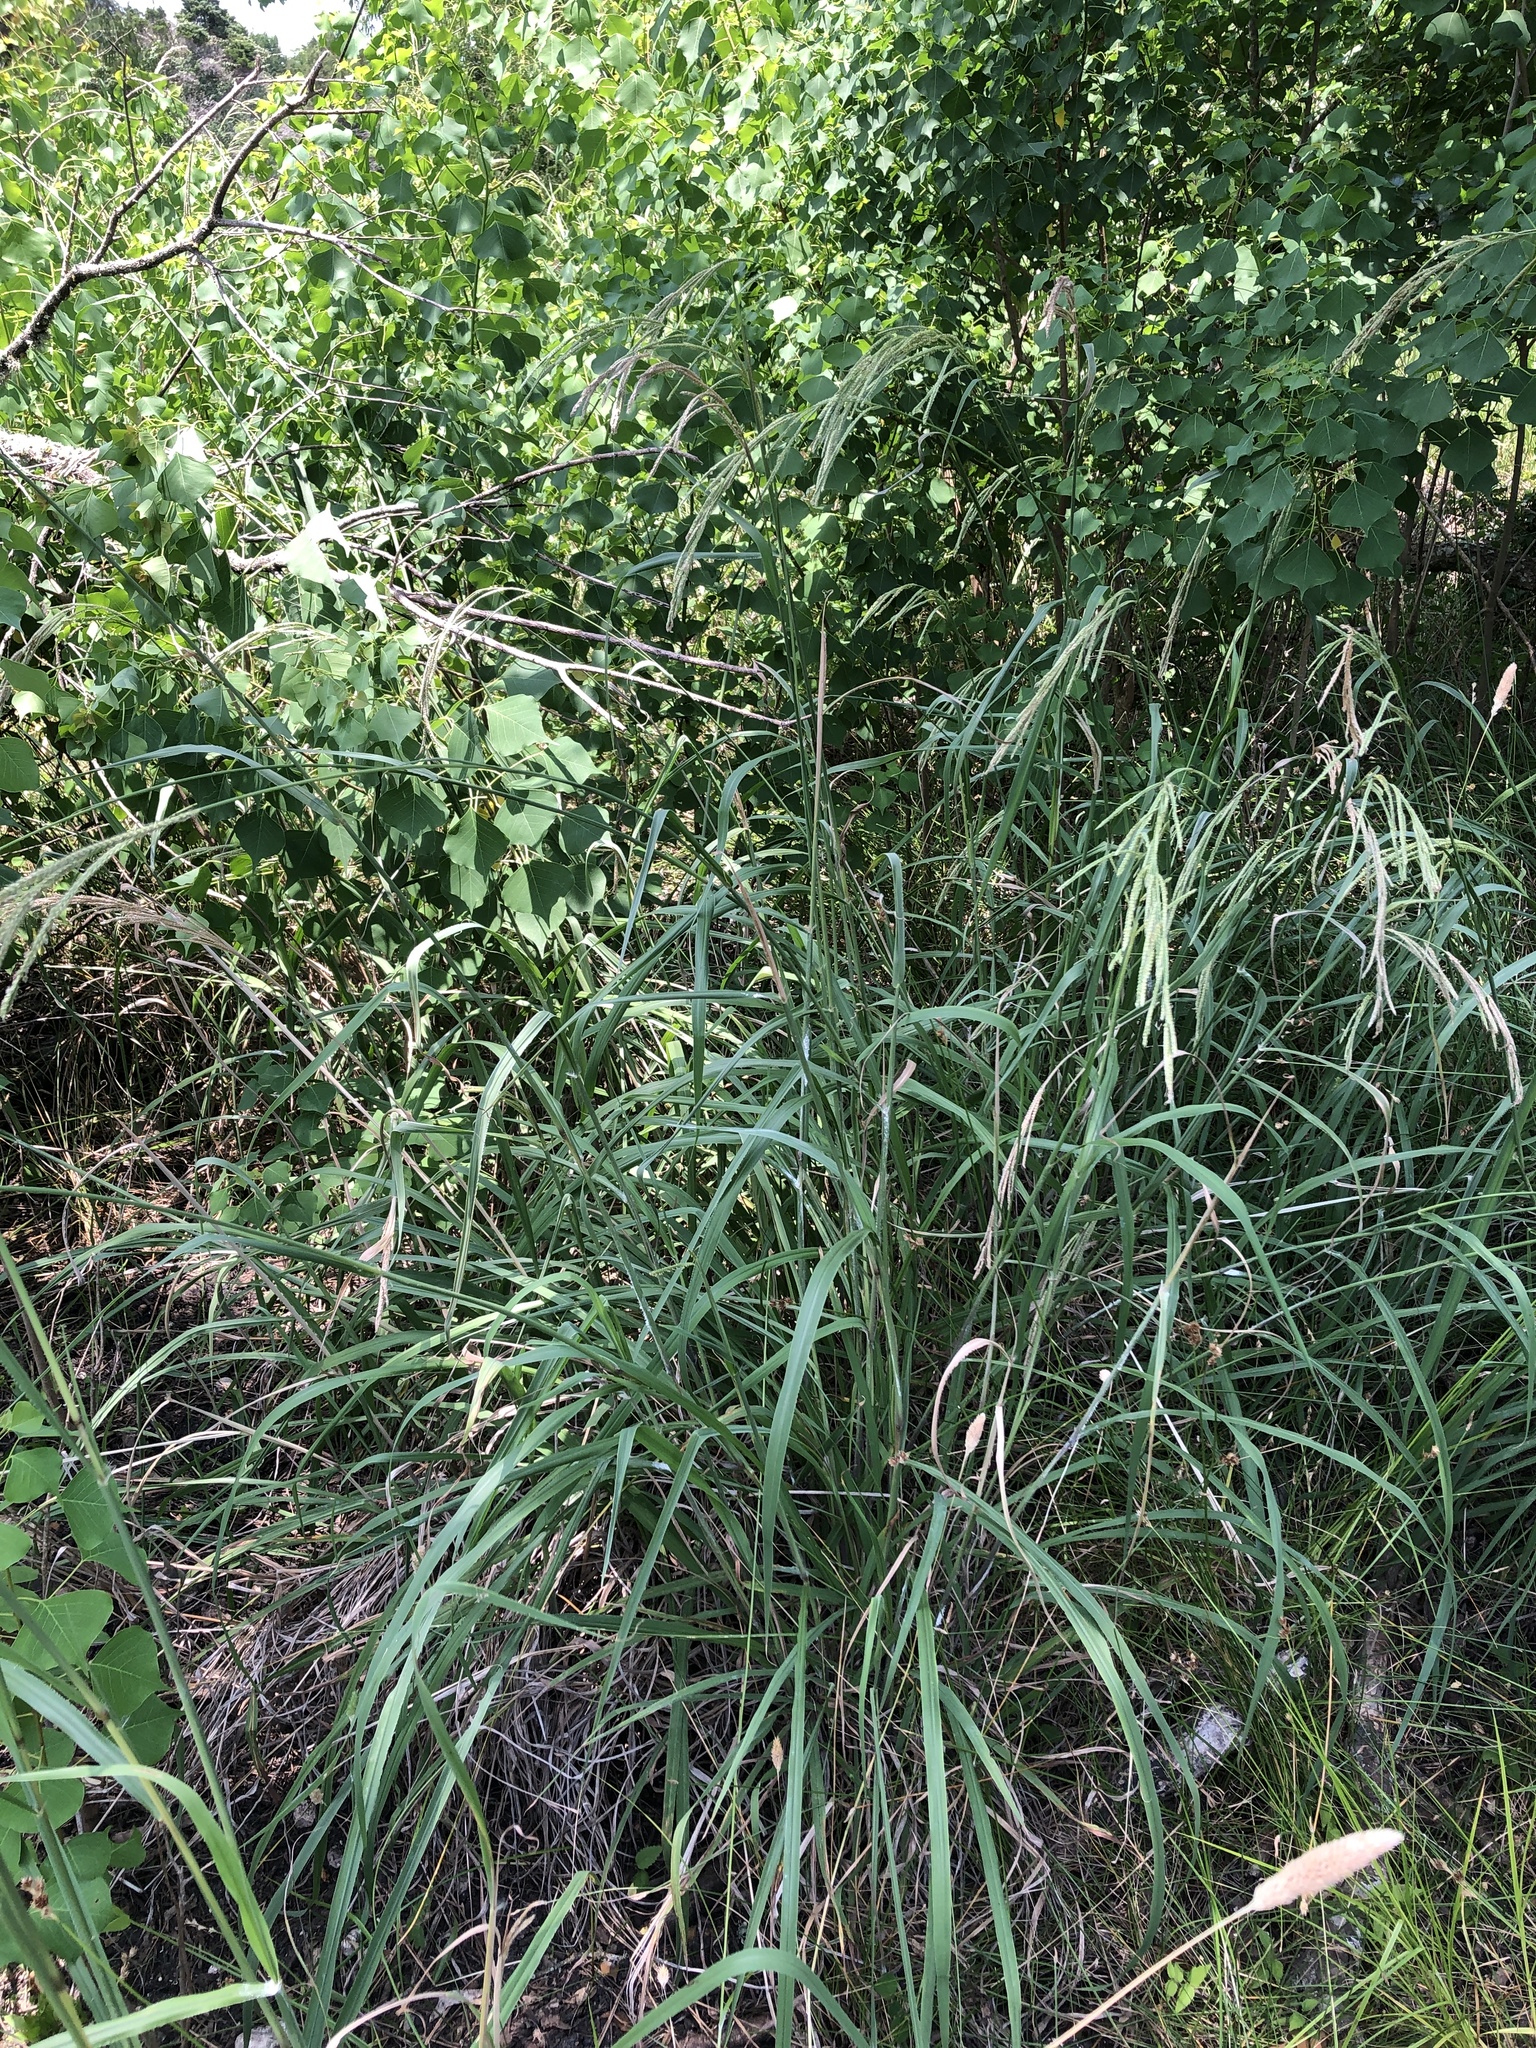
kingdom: Plantae
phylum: Tracheophyta
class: Liliopsida
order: Poales
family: Poaceae
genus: Paspalum
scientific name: Paspalum urvillei
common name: Vasey's grass
